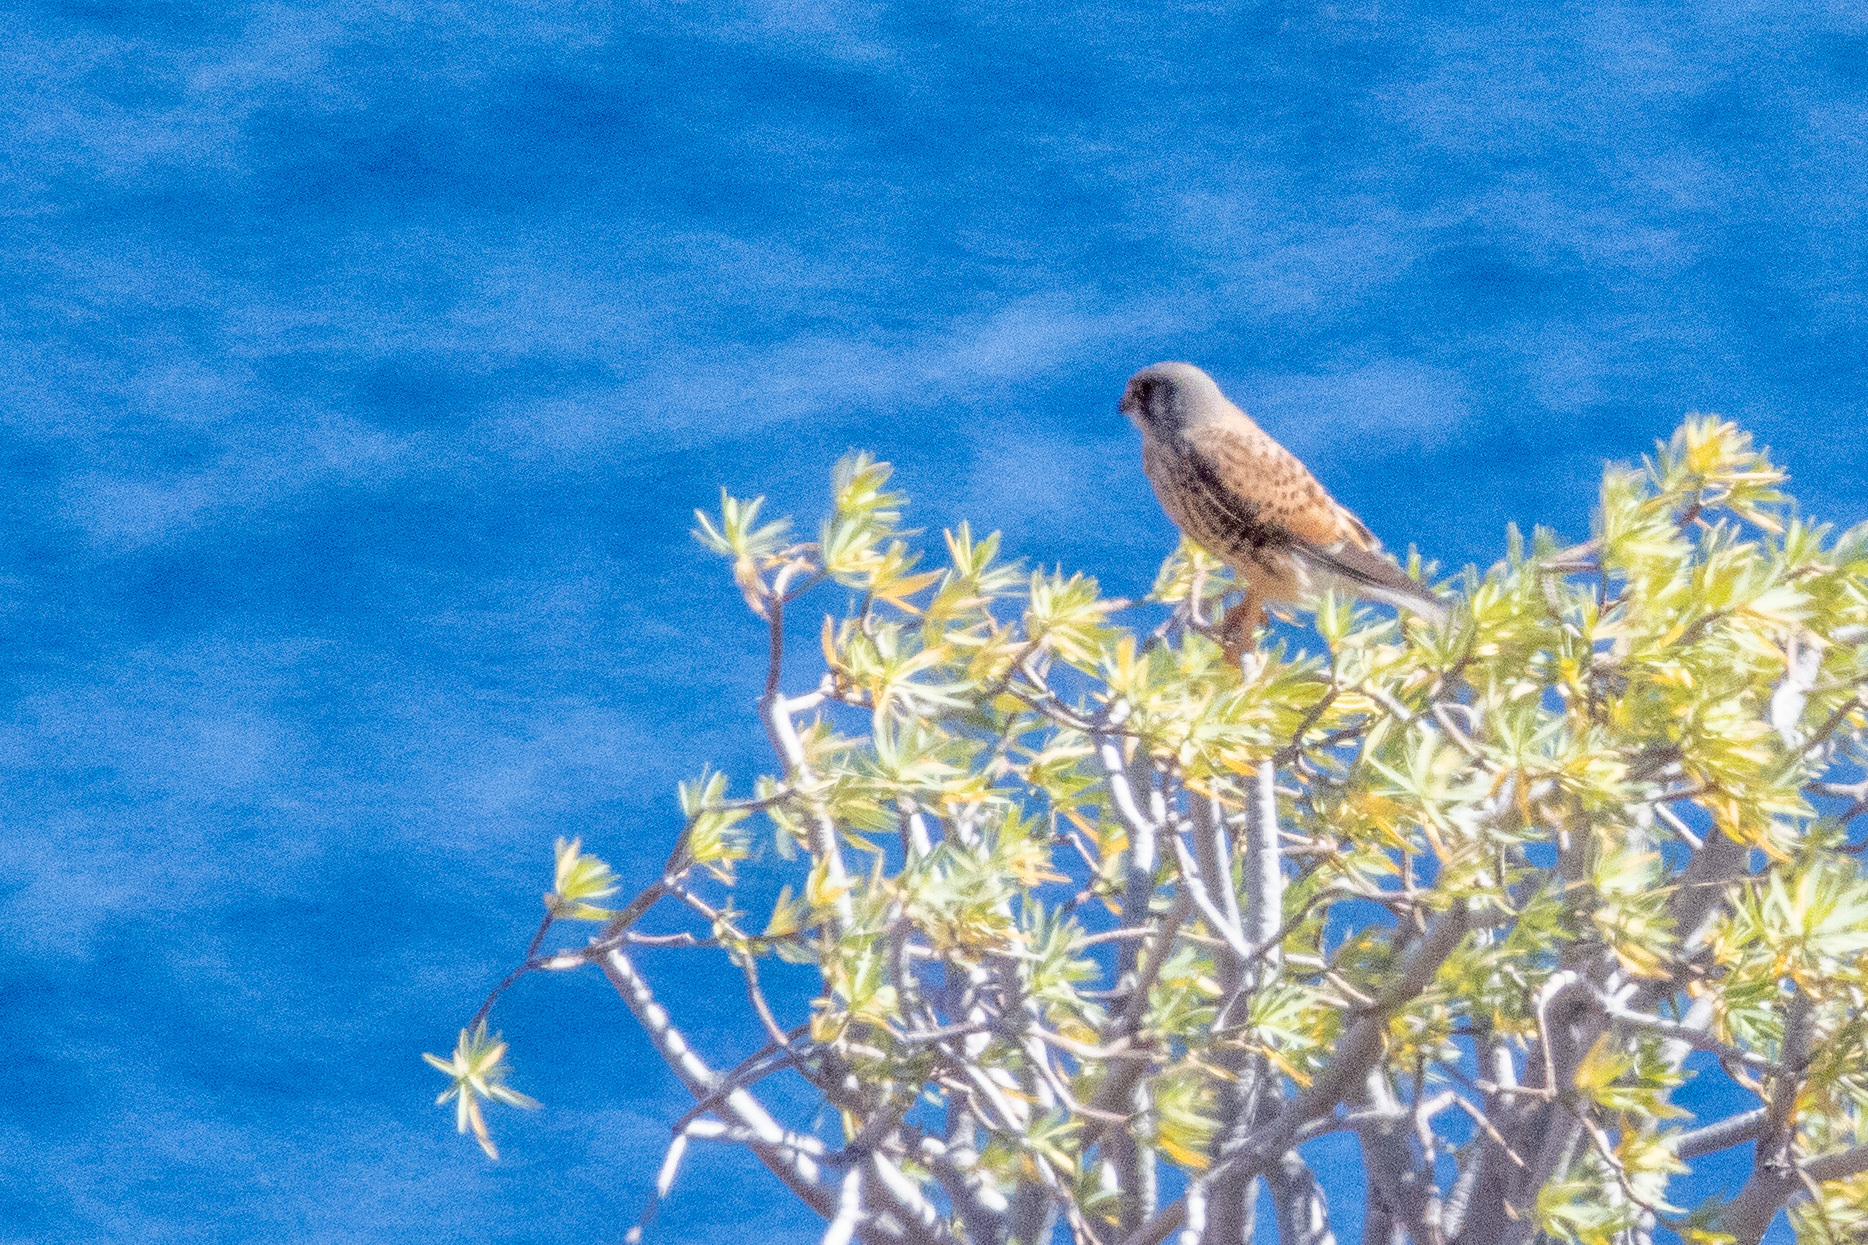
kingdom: Animalia
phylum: Chordata
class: Aves
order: Falconiformes
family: Falconidae
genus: Falco
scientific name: Falco tinnunculus
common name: Common kestrel
